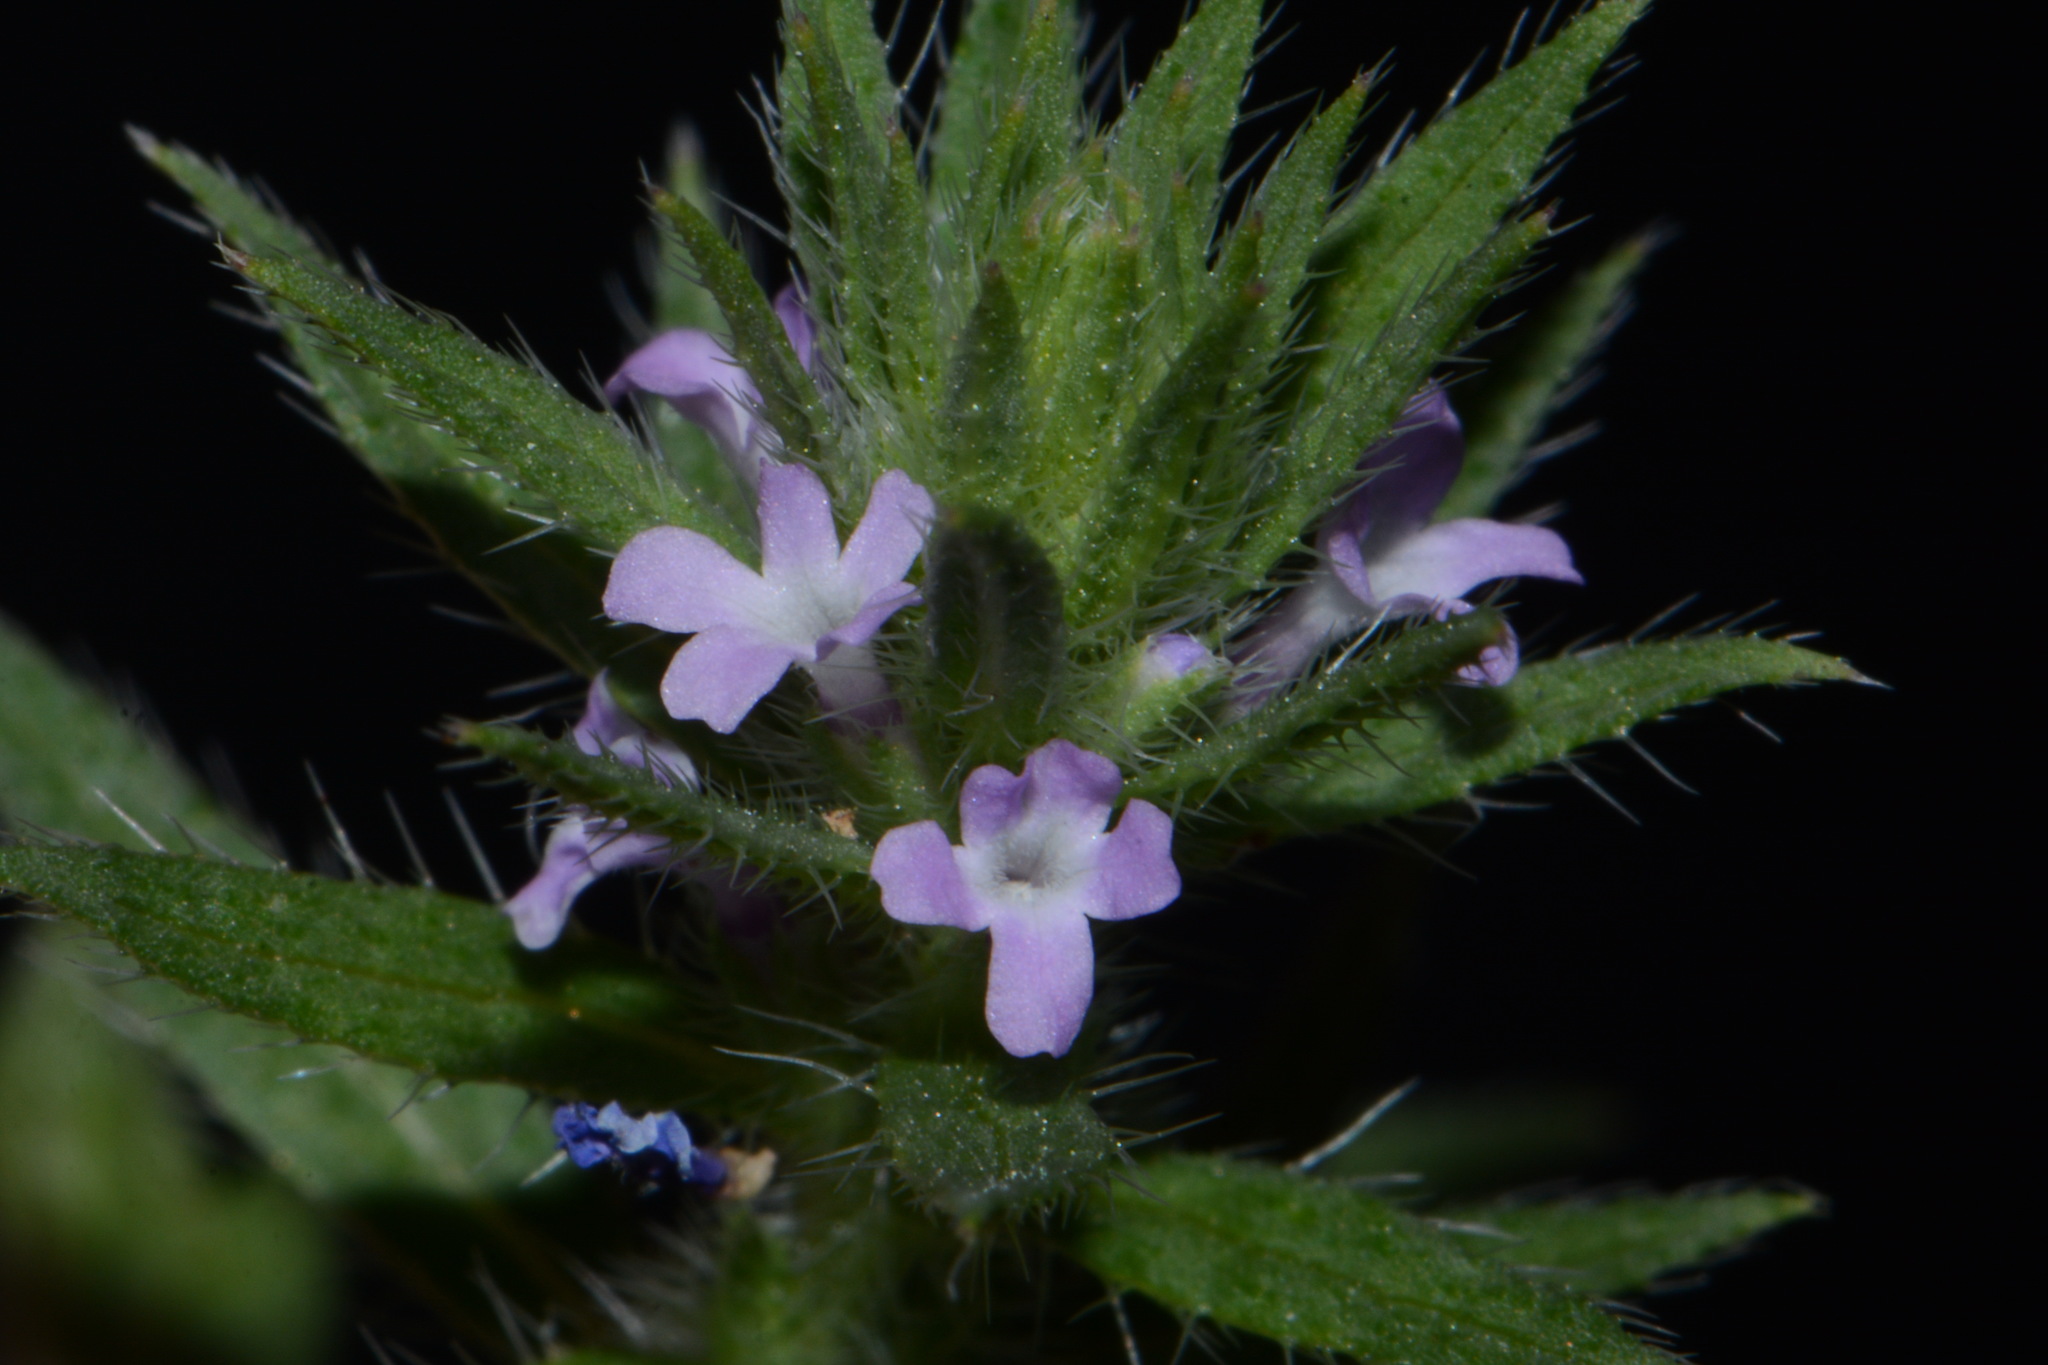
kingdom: Plantae
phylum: Tracheophyta
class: Magnoliopsida
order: Lamiales
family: Verbenaceae
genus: Verbena
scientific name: Verbena bracteata
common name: Bracted vervain
